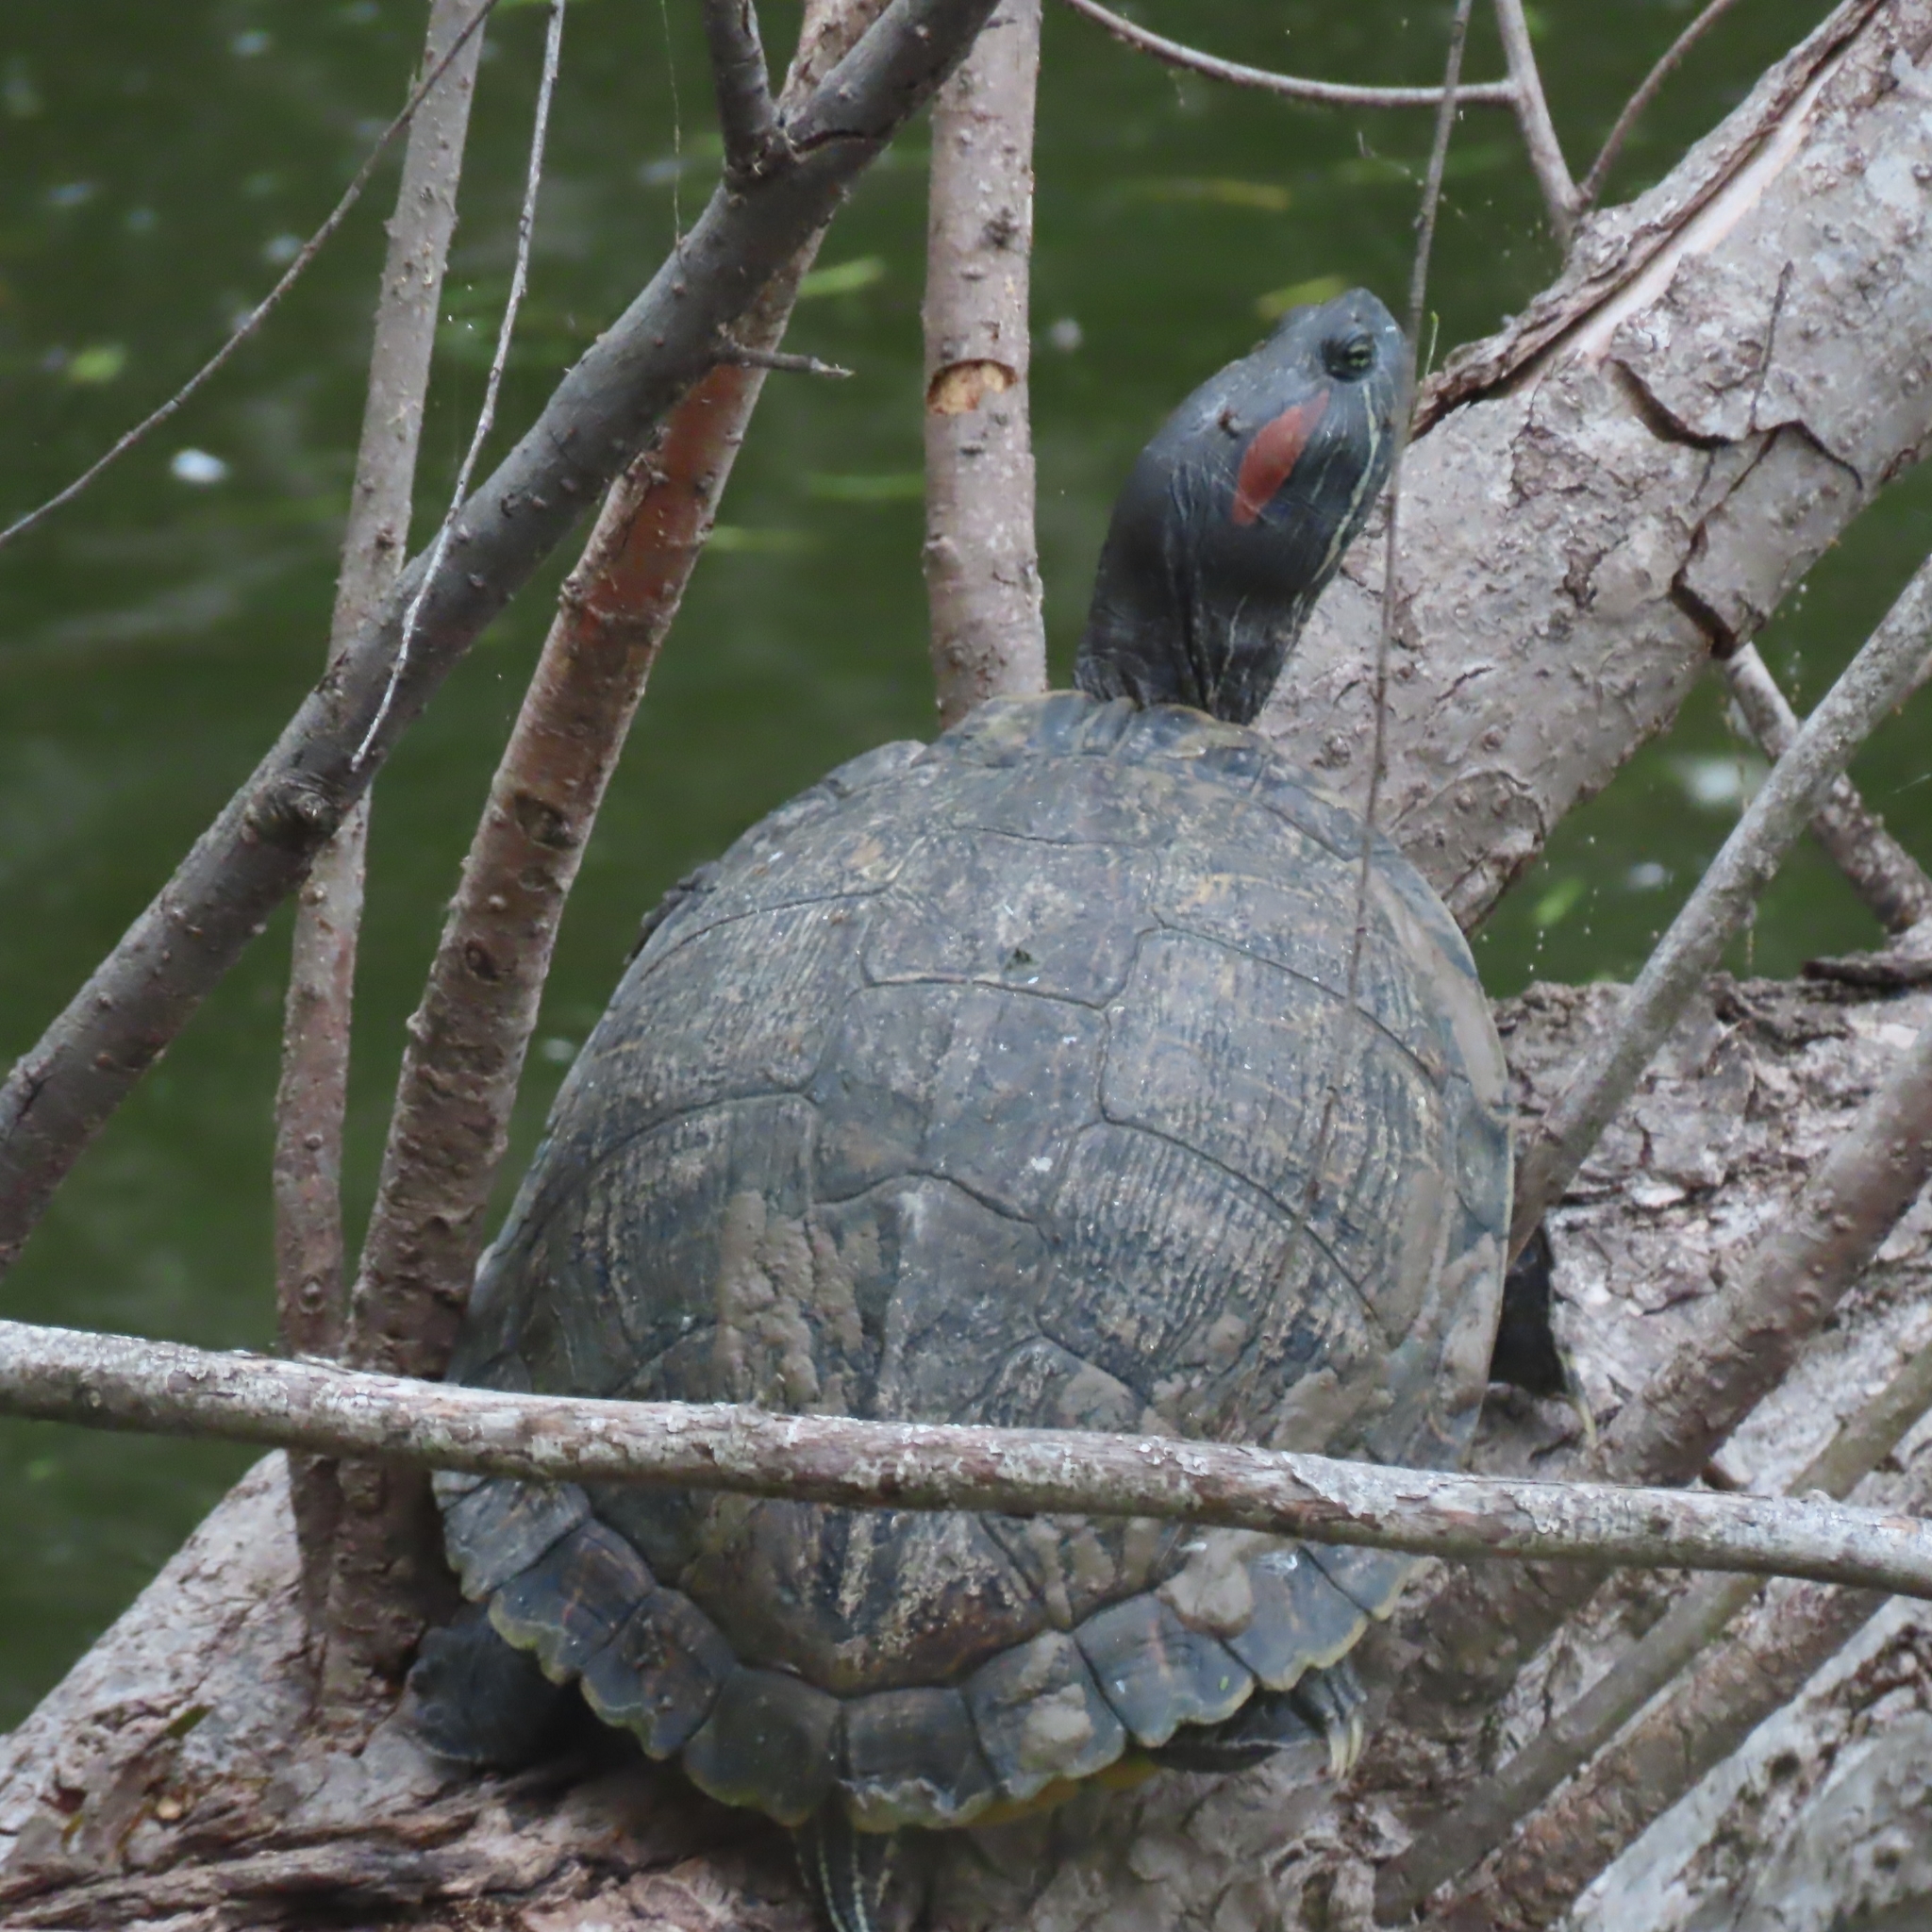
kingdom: Animalia
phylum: Chordata
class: Testudines
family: Emydidae
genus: Trachemys
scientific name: Trachemys scripta
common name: Slider
